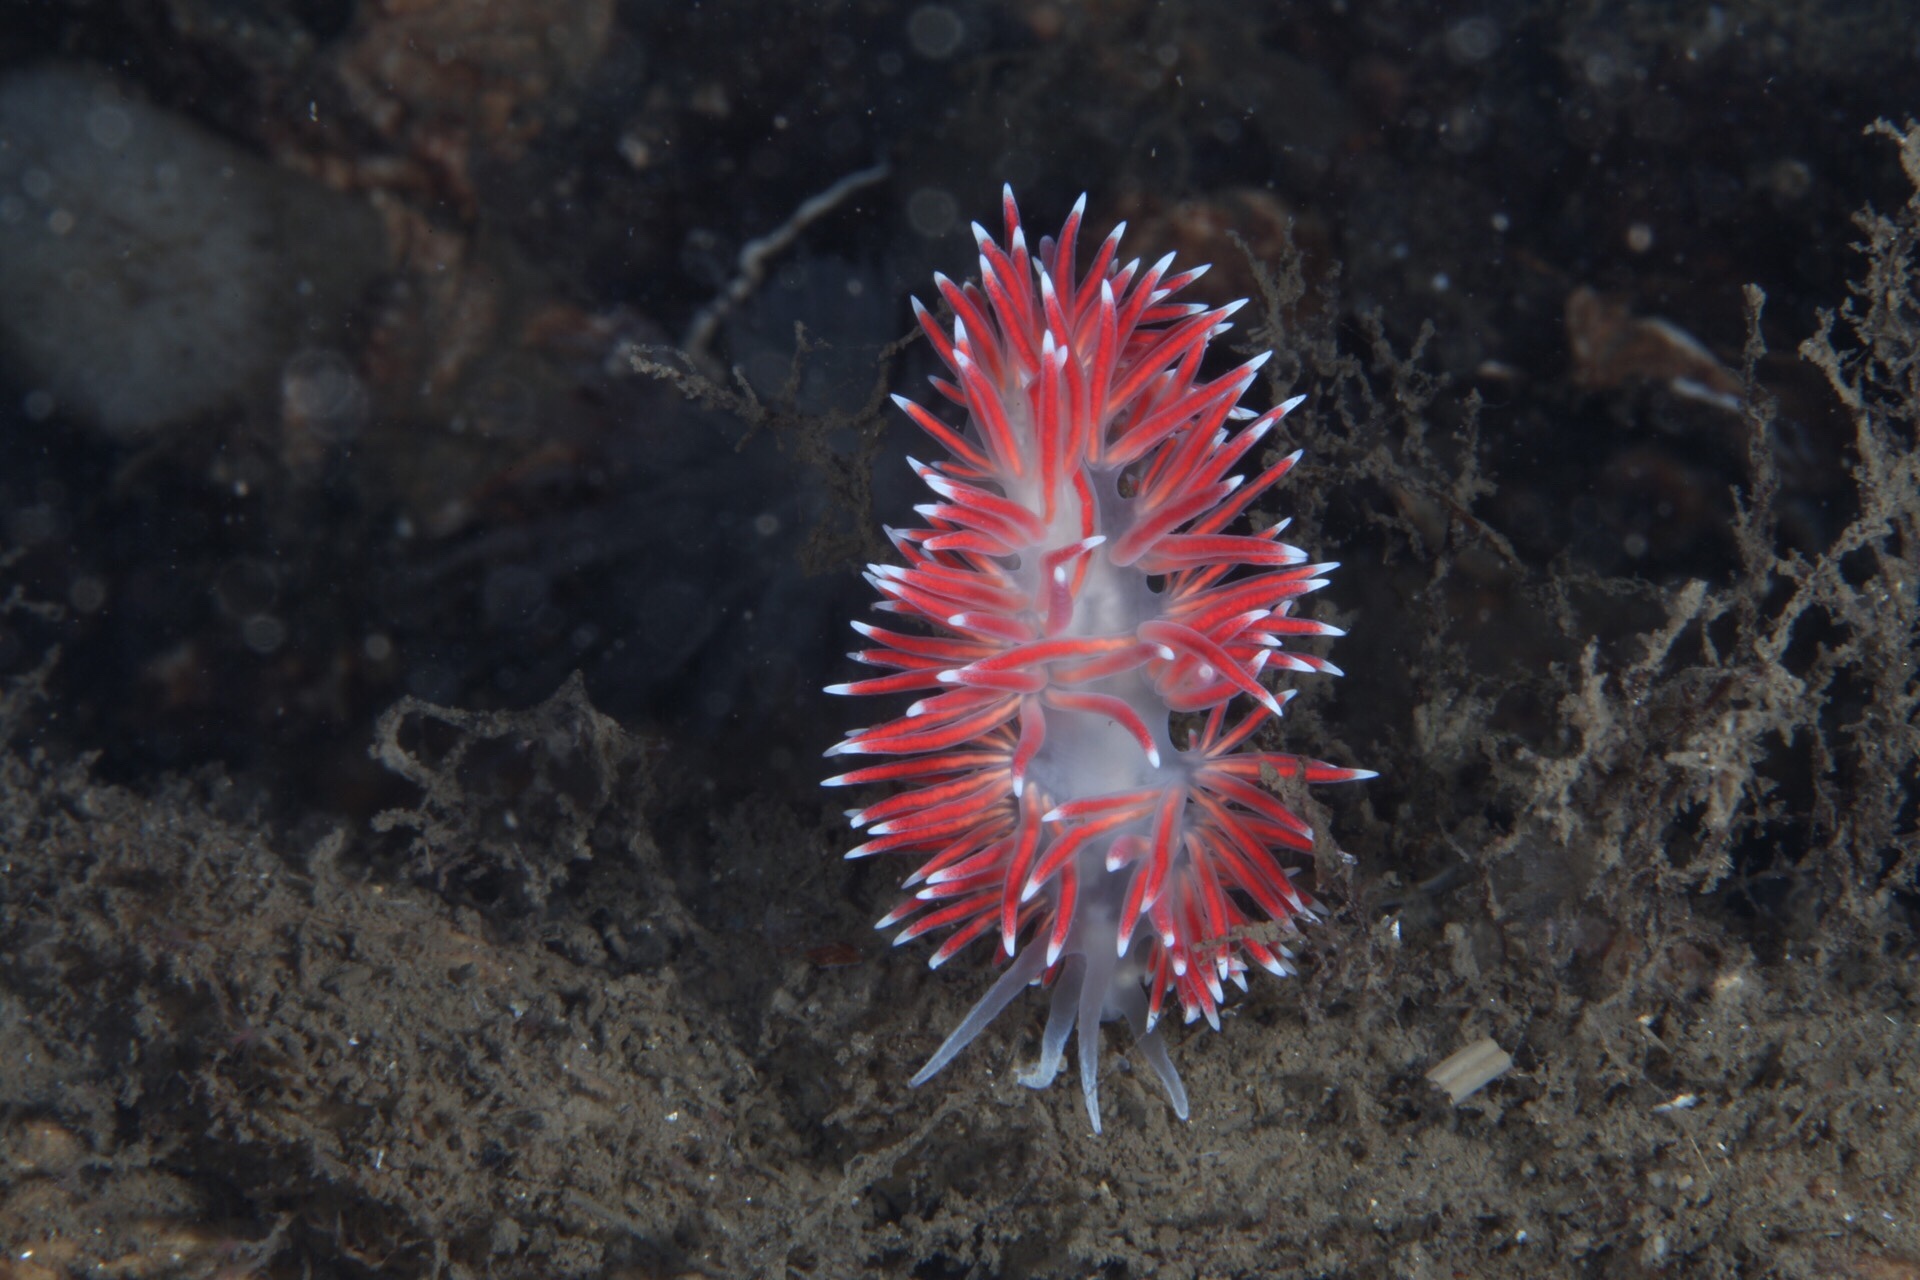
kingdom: Animalia
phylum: Mollusca
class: Gastropoda
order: Nudibranchia
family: Flabellinidae
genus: Carronella
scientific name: Carronella pellucida
